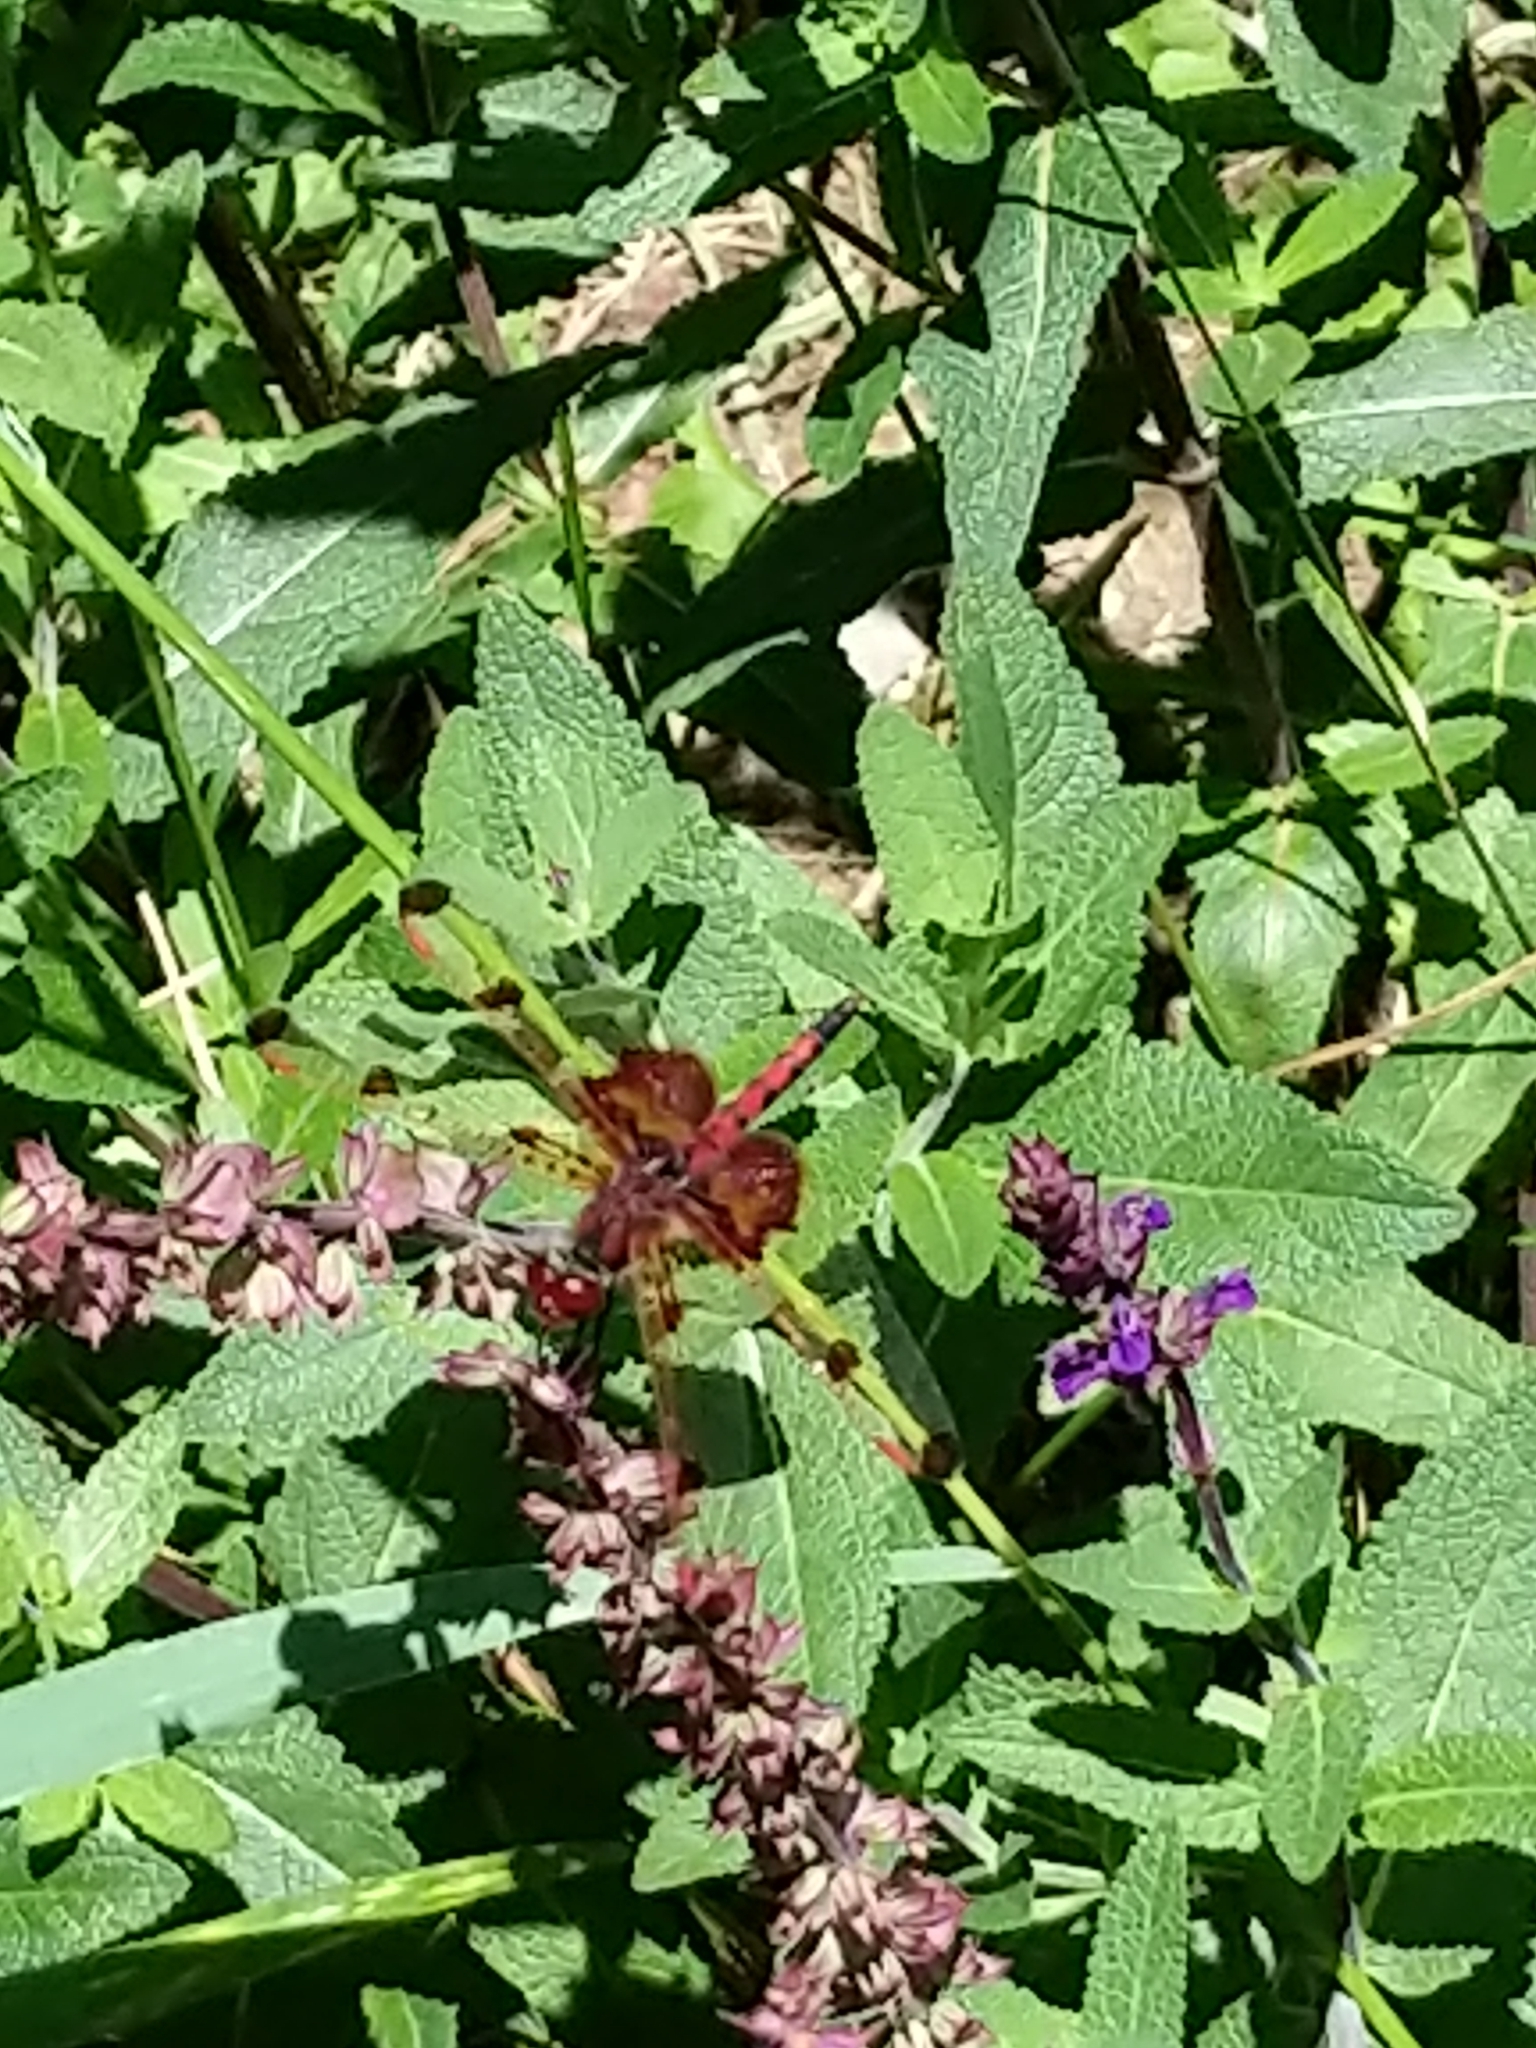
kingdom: Animalia
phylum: Arthropoda
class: Insecta
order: Odonata
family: Libellulidae
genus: Celithemis
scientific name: Celithemis elisa
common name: Calico pennant
